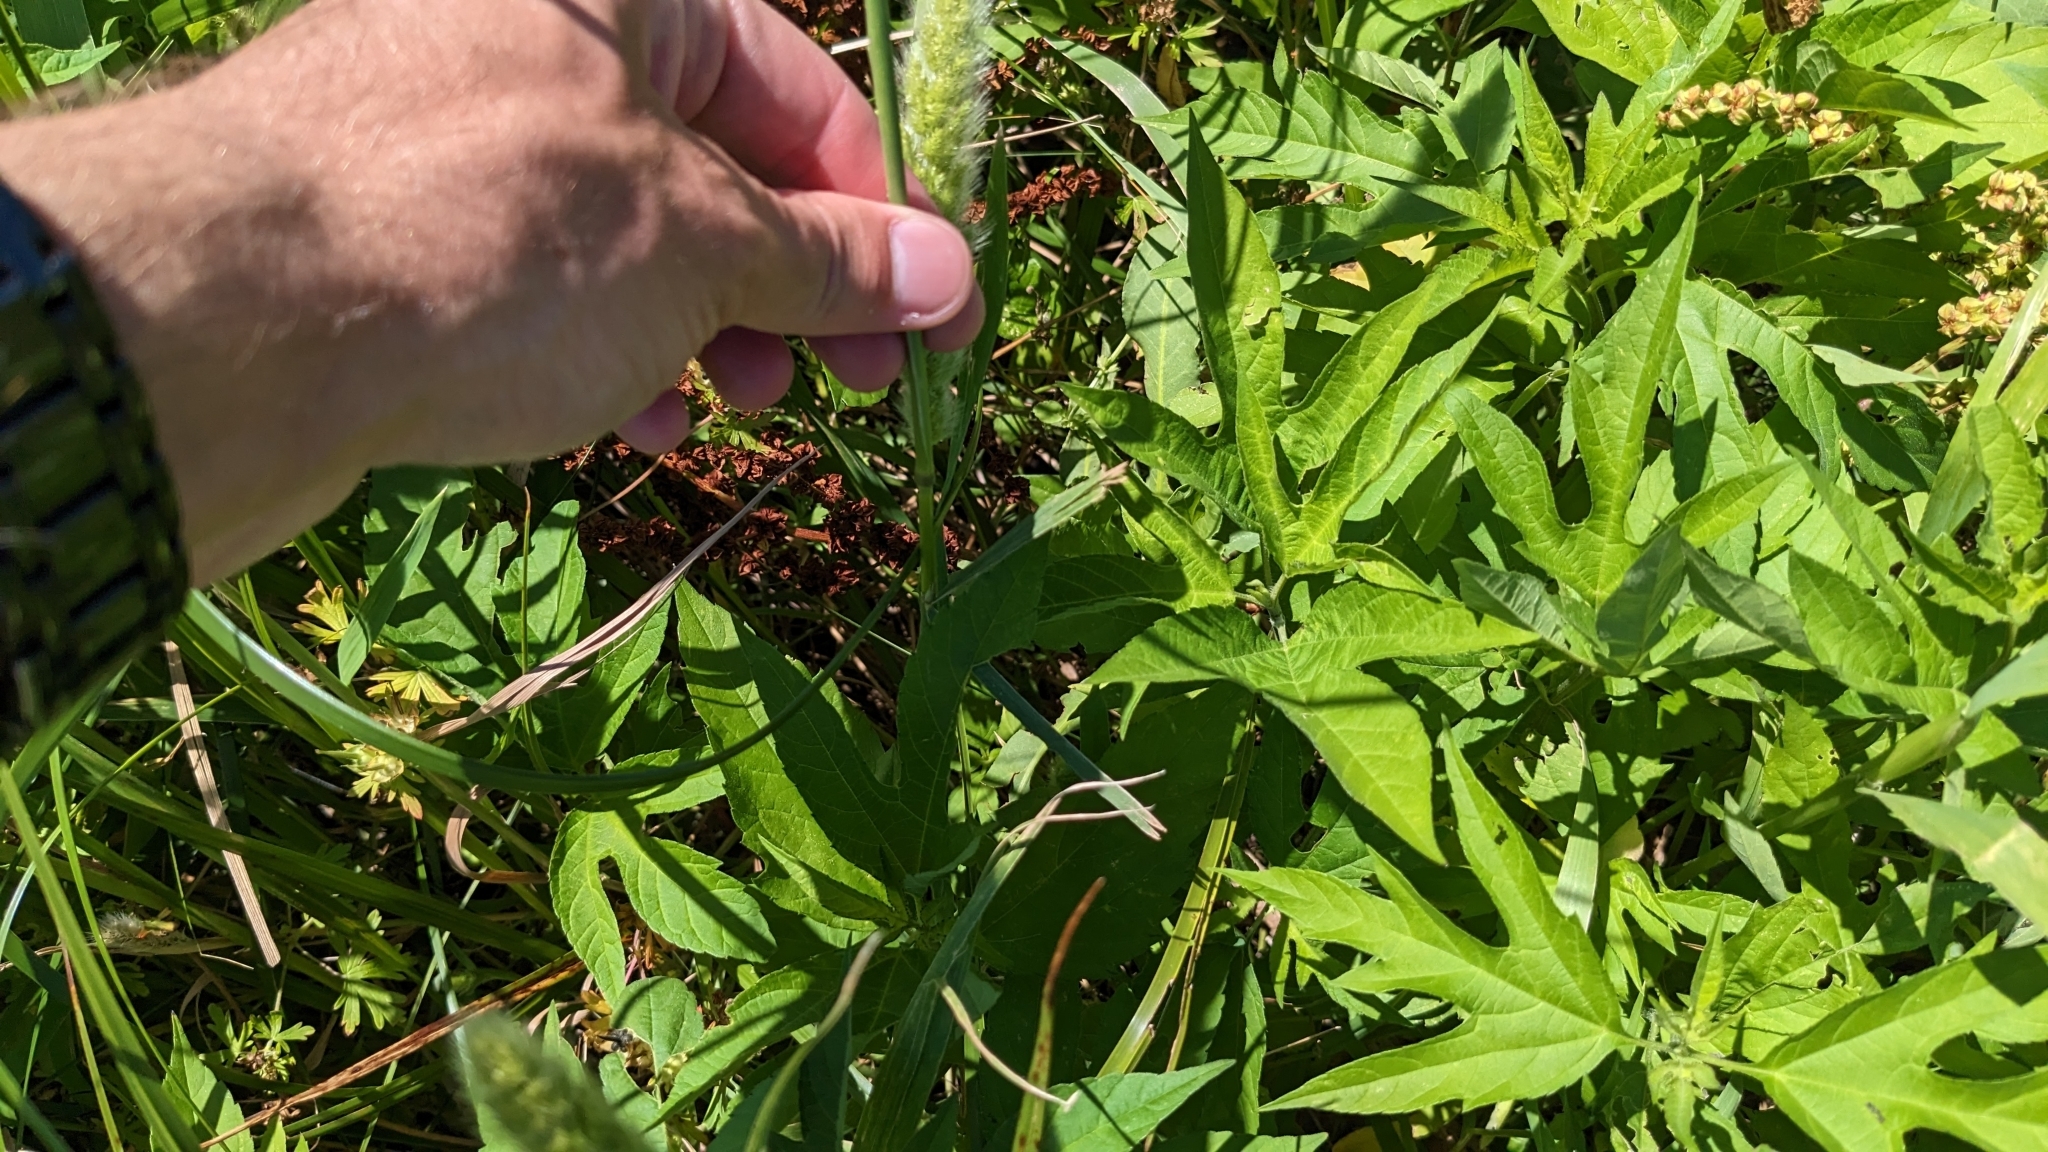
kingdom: Plantae
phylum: Tracheophyta
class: Liliopsida
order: Poales
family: Poaceae
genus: Polypogon
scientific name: Polypogon monspeliensis
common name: Annual rabbitsfoot grass
